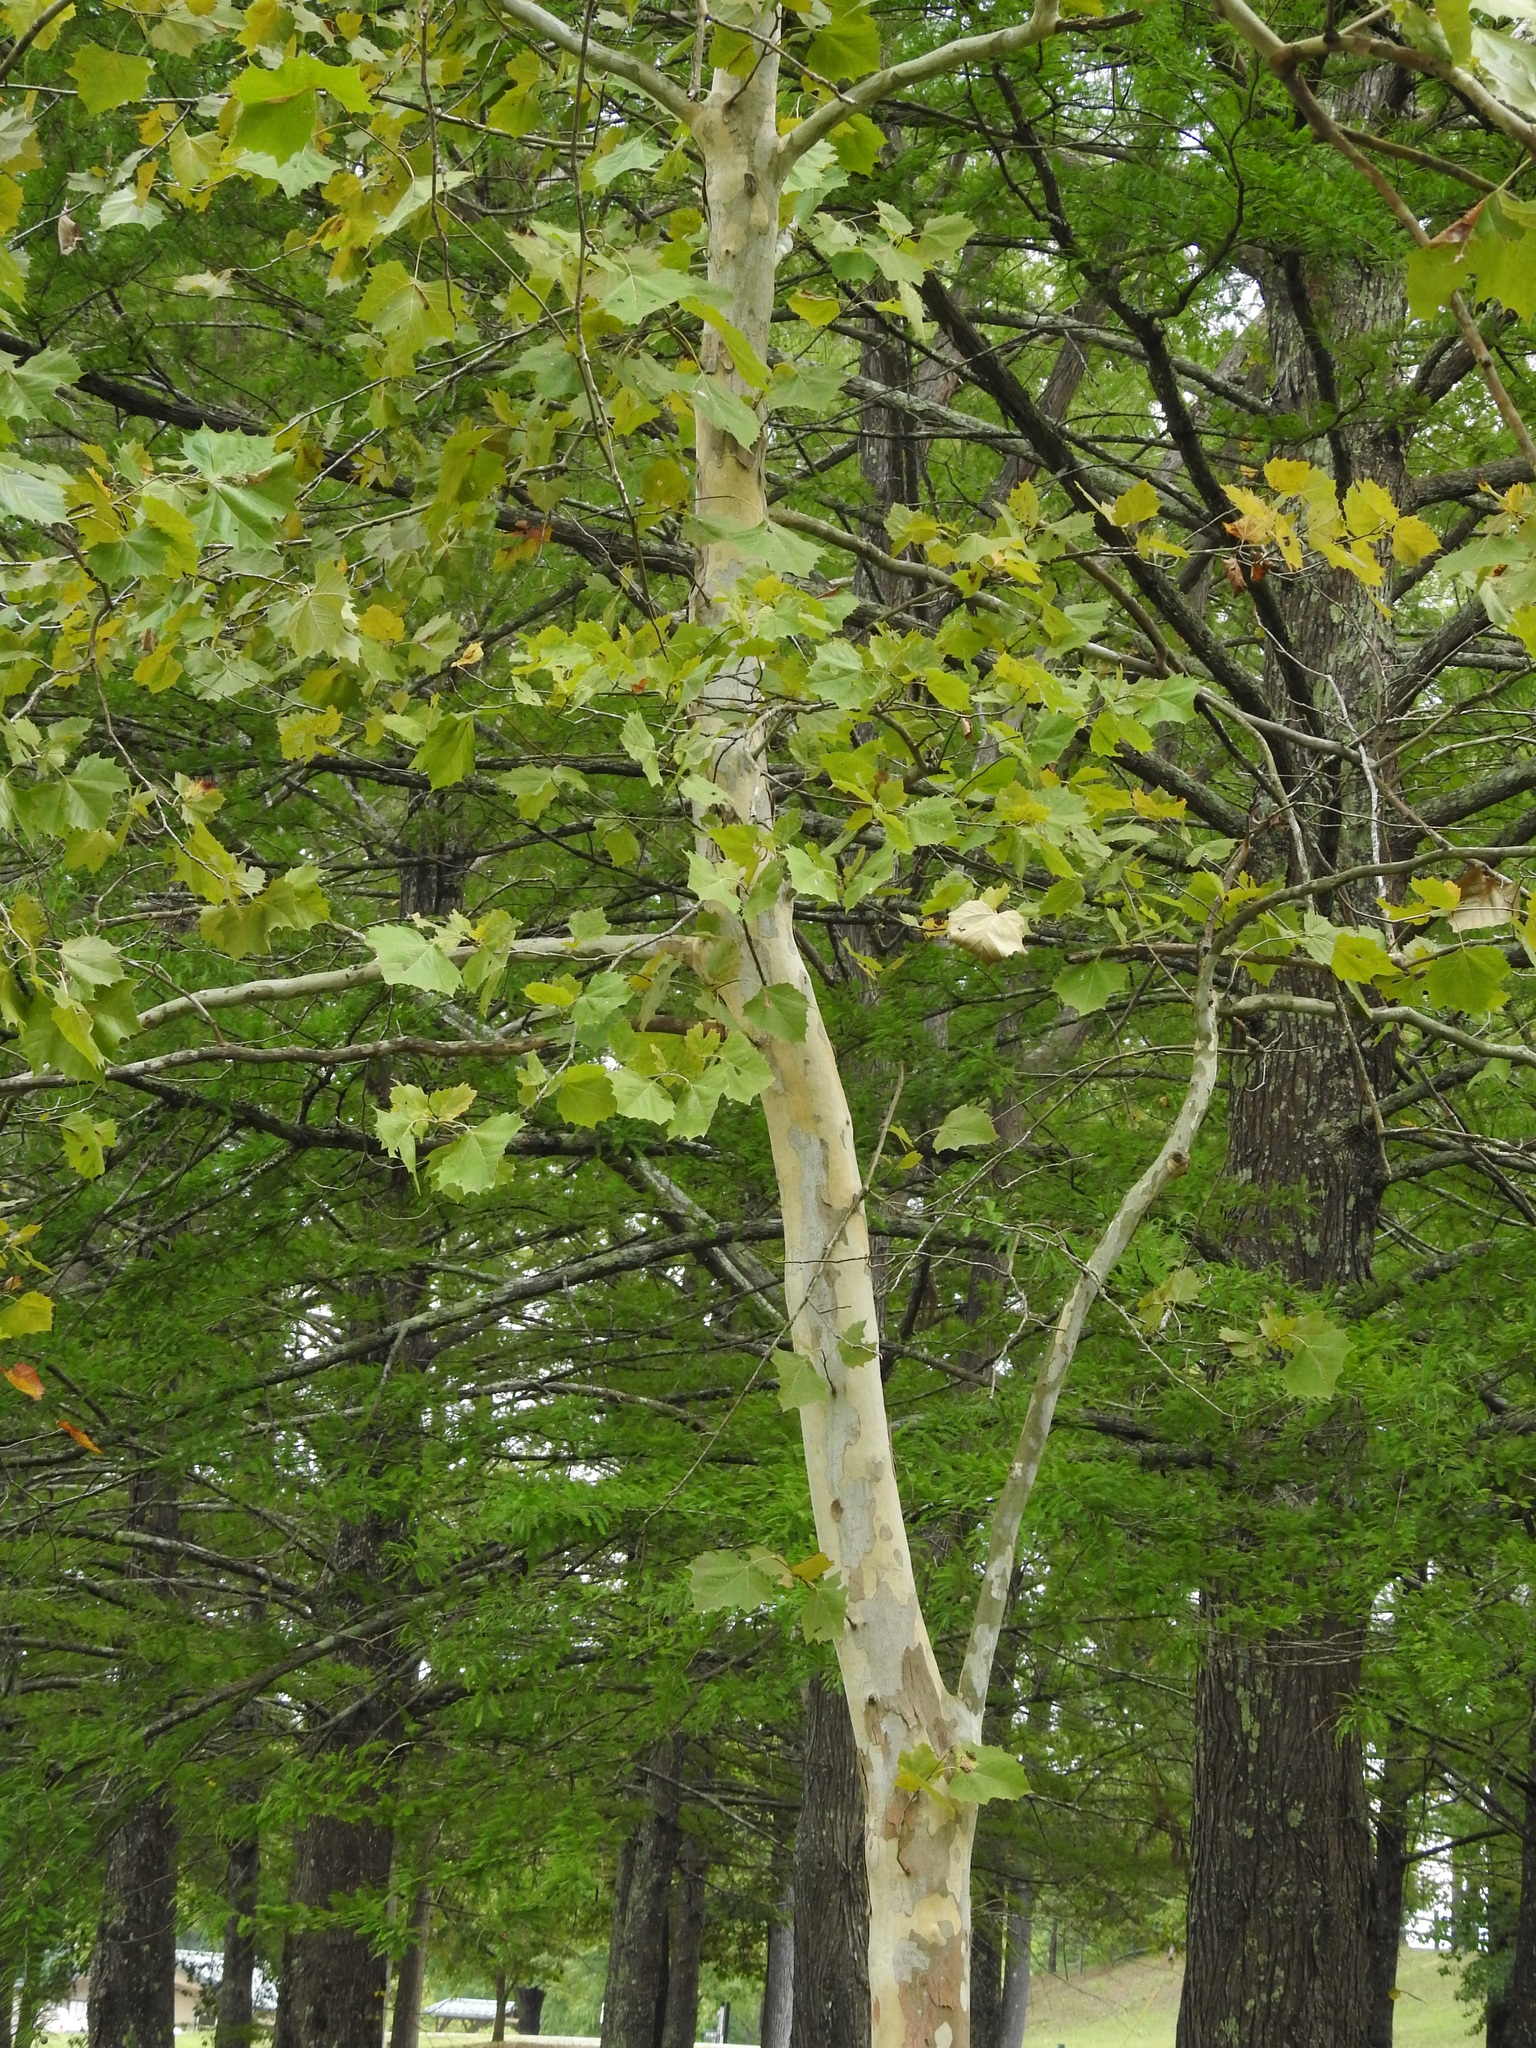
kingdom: Plantae
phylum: Tracheophyta
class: Magnoliopsida
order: Proteales
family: Platanaceae
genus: Platanus
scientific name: Platanus occidentalis
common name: American sycamore
